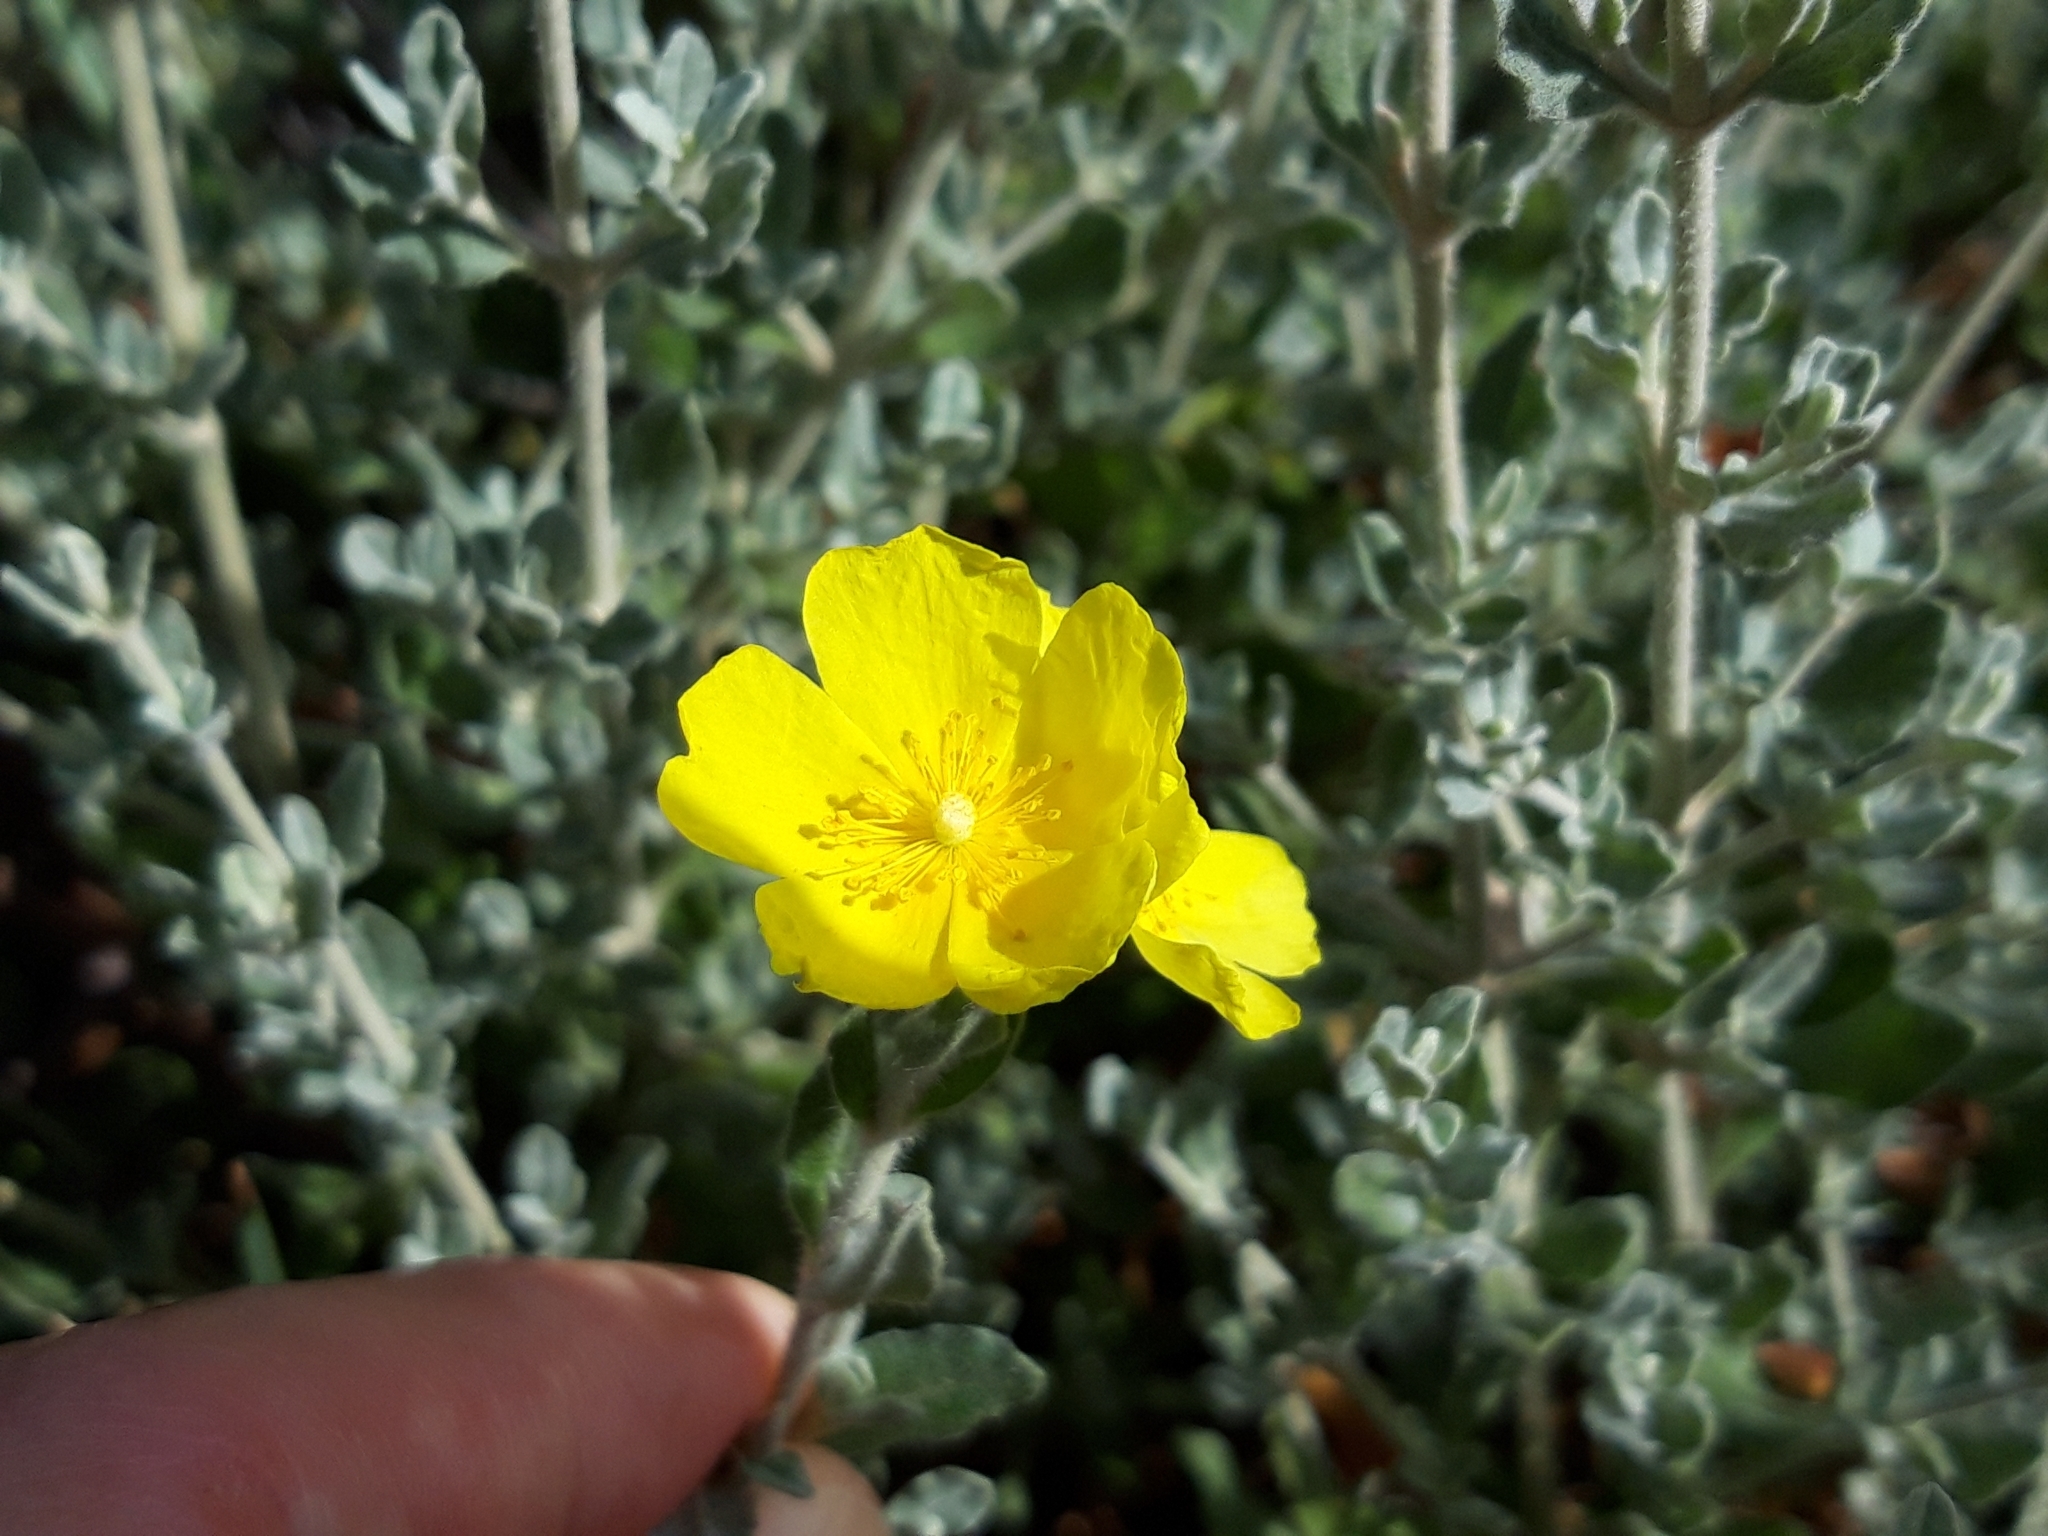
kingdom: Plantae
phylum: Tracheophyta
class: Magnoliopsida
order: Malvales
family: Cistaceae
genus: Halimium
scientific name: Halimium lasianthum
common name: Lisbon false sun-rose
